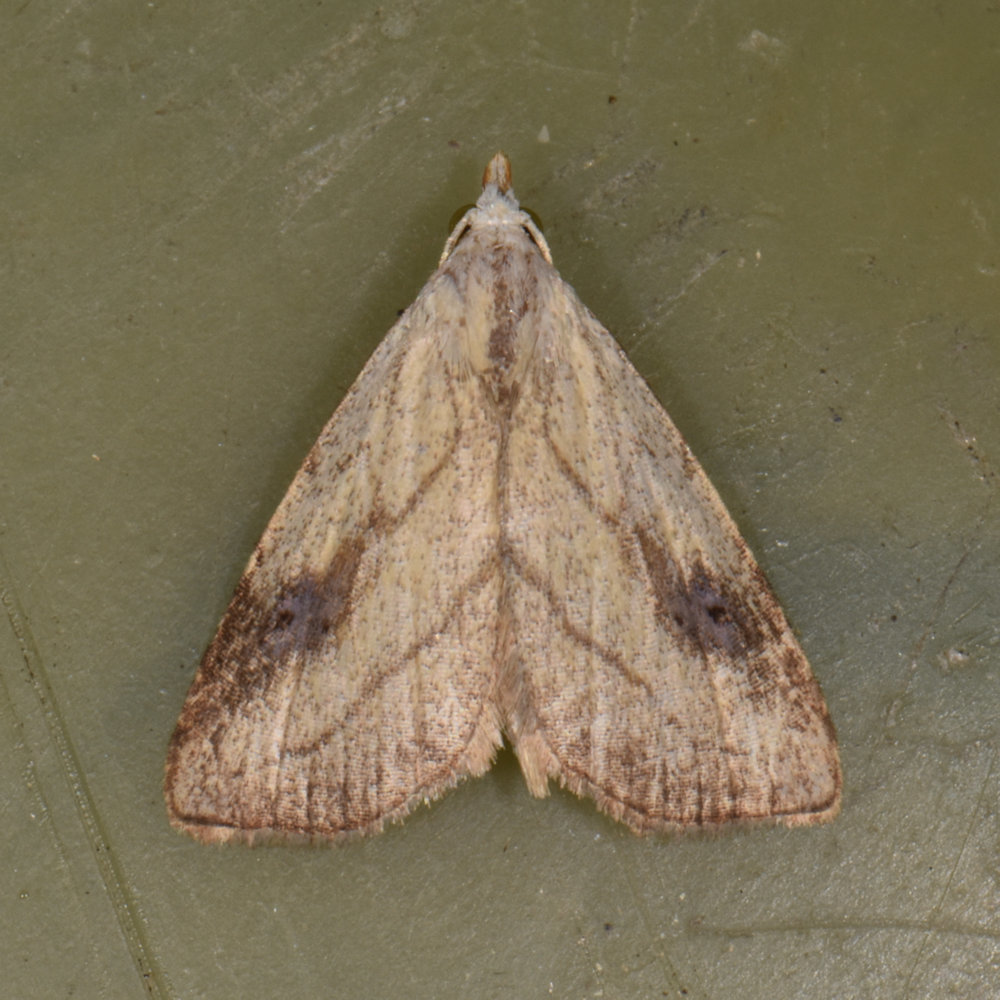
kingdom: Animalia
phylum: Arthropoda
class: Insecta
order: Lepidoptera
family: Erebidae
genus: Rivula
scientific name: Rivula propinqualis
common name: Spotted grass moth
